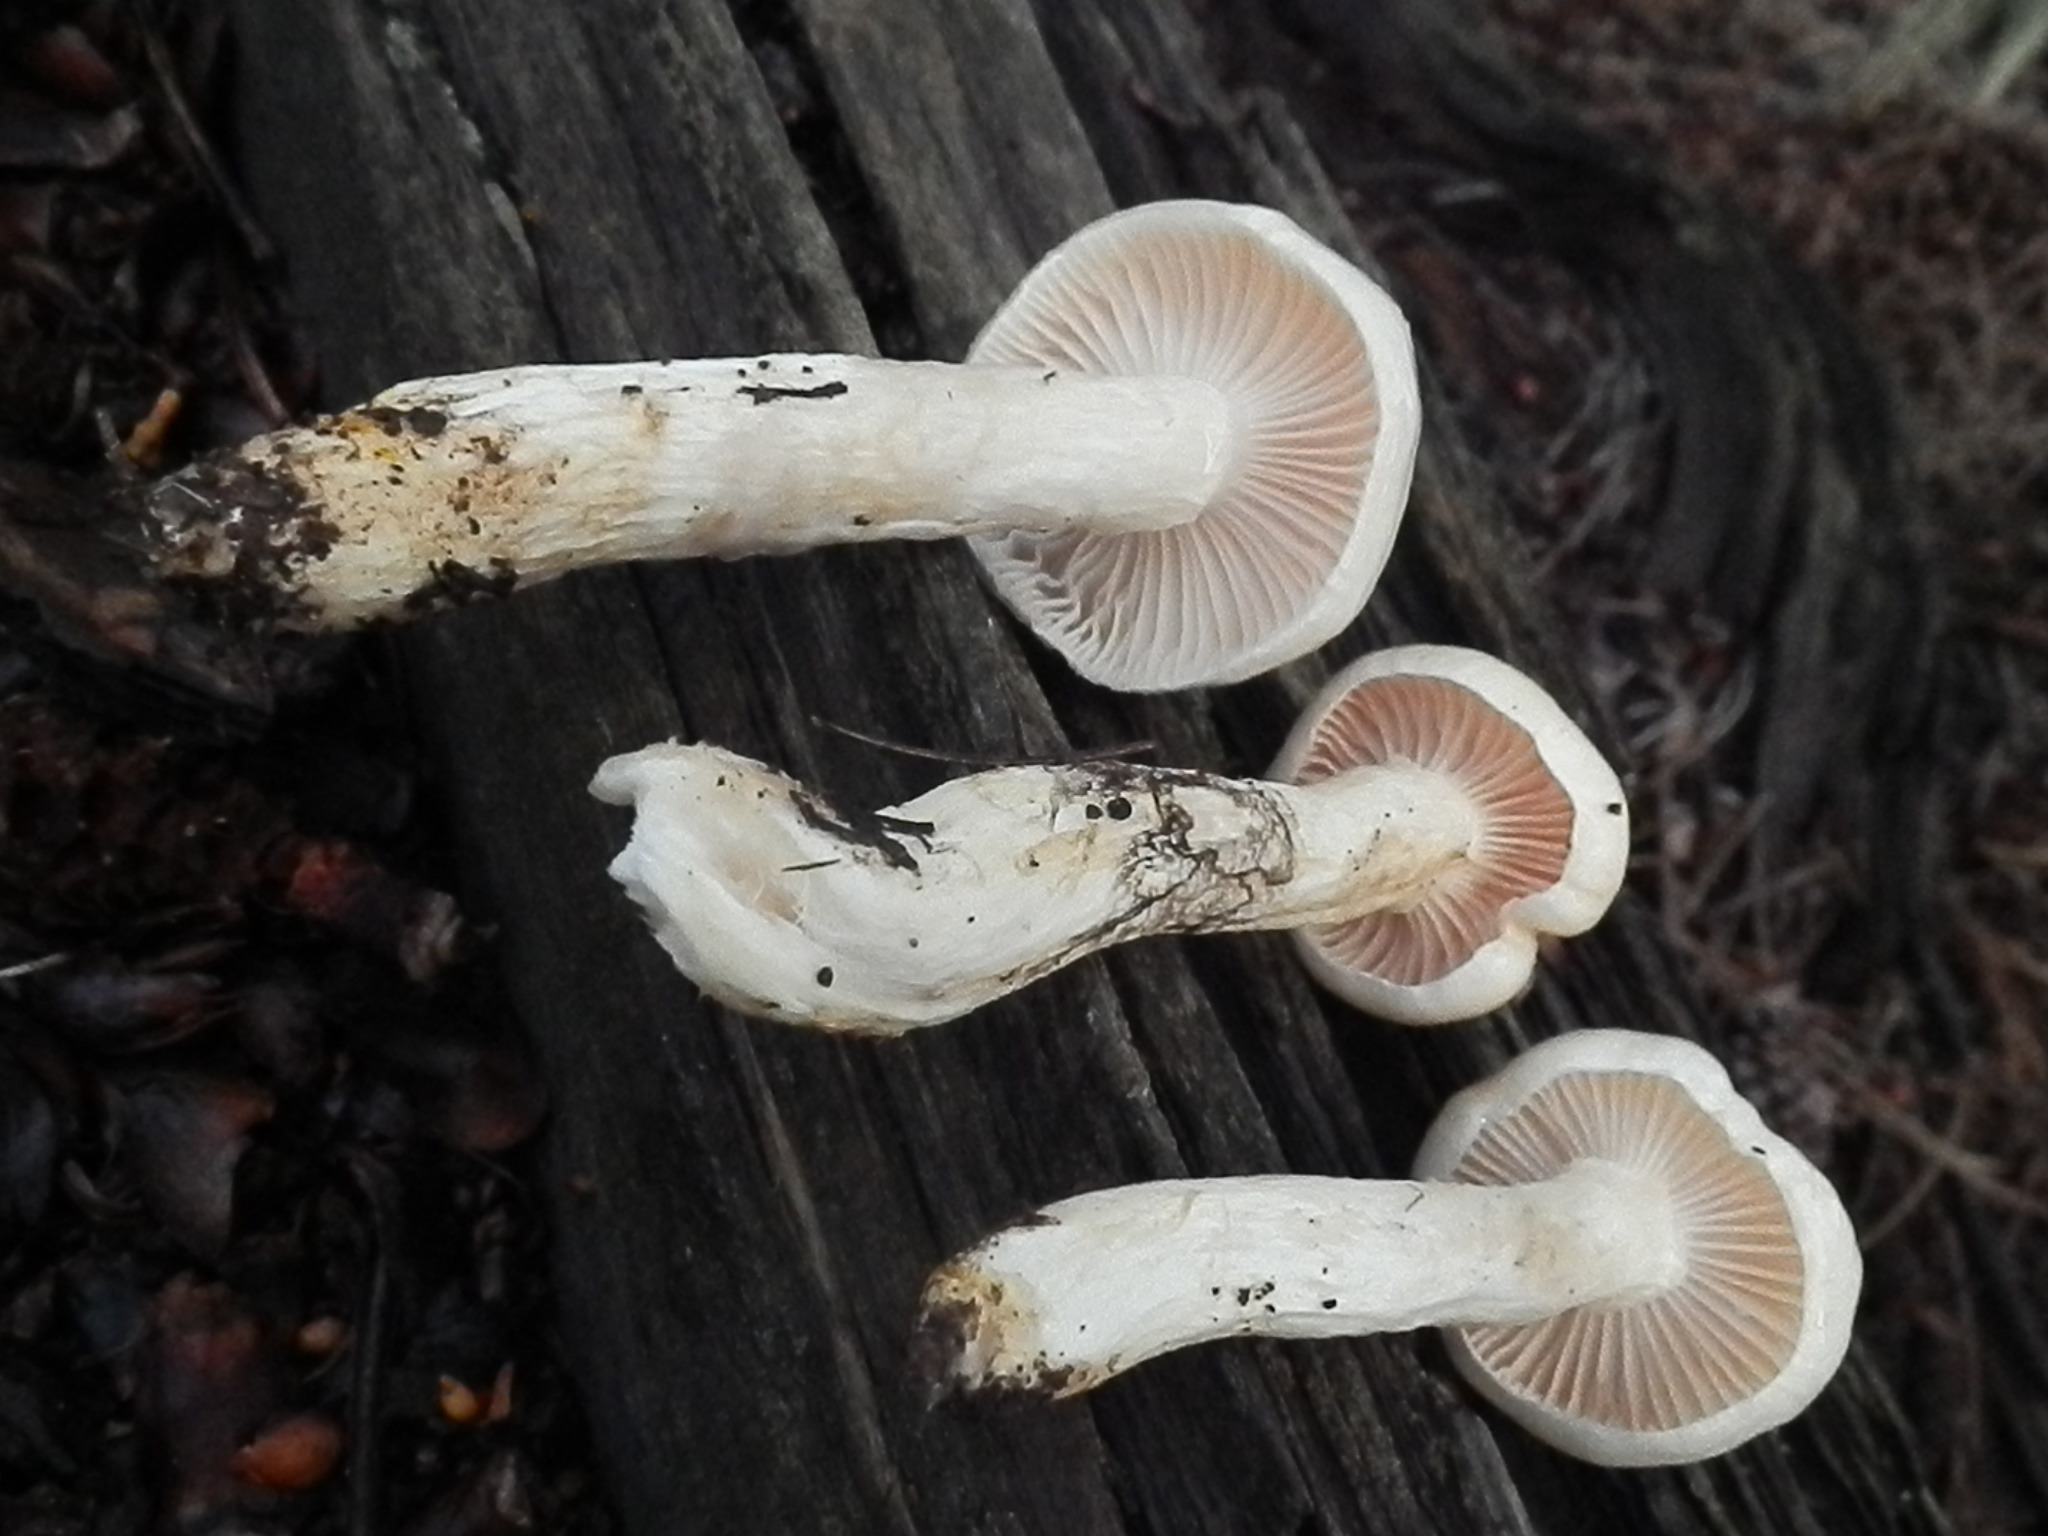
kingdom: Fungi
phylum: Basidiomycota
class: Agaricomycetes
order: Agaricales
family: Hygrophoraceae
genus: Hygrophorus
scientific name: Hygrophorus ligatus
